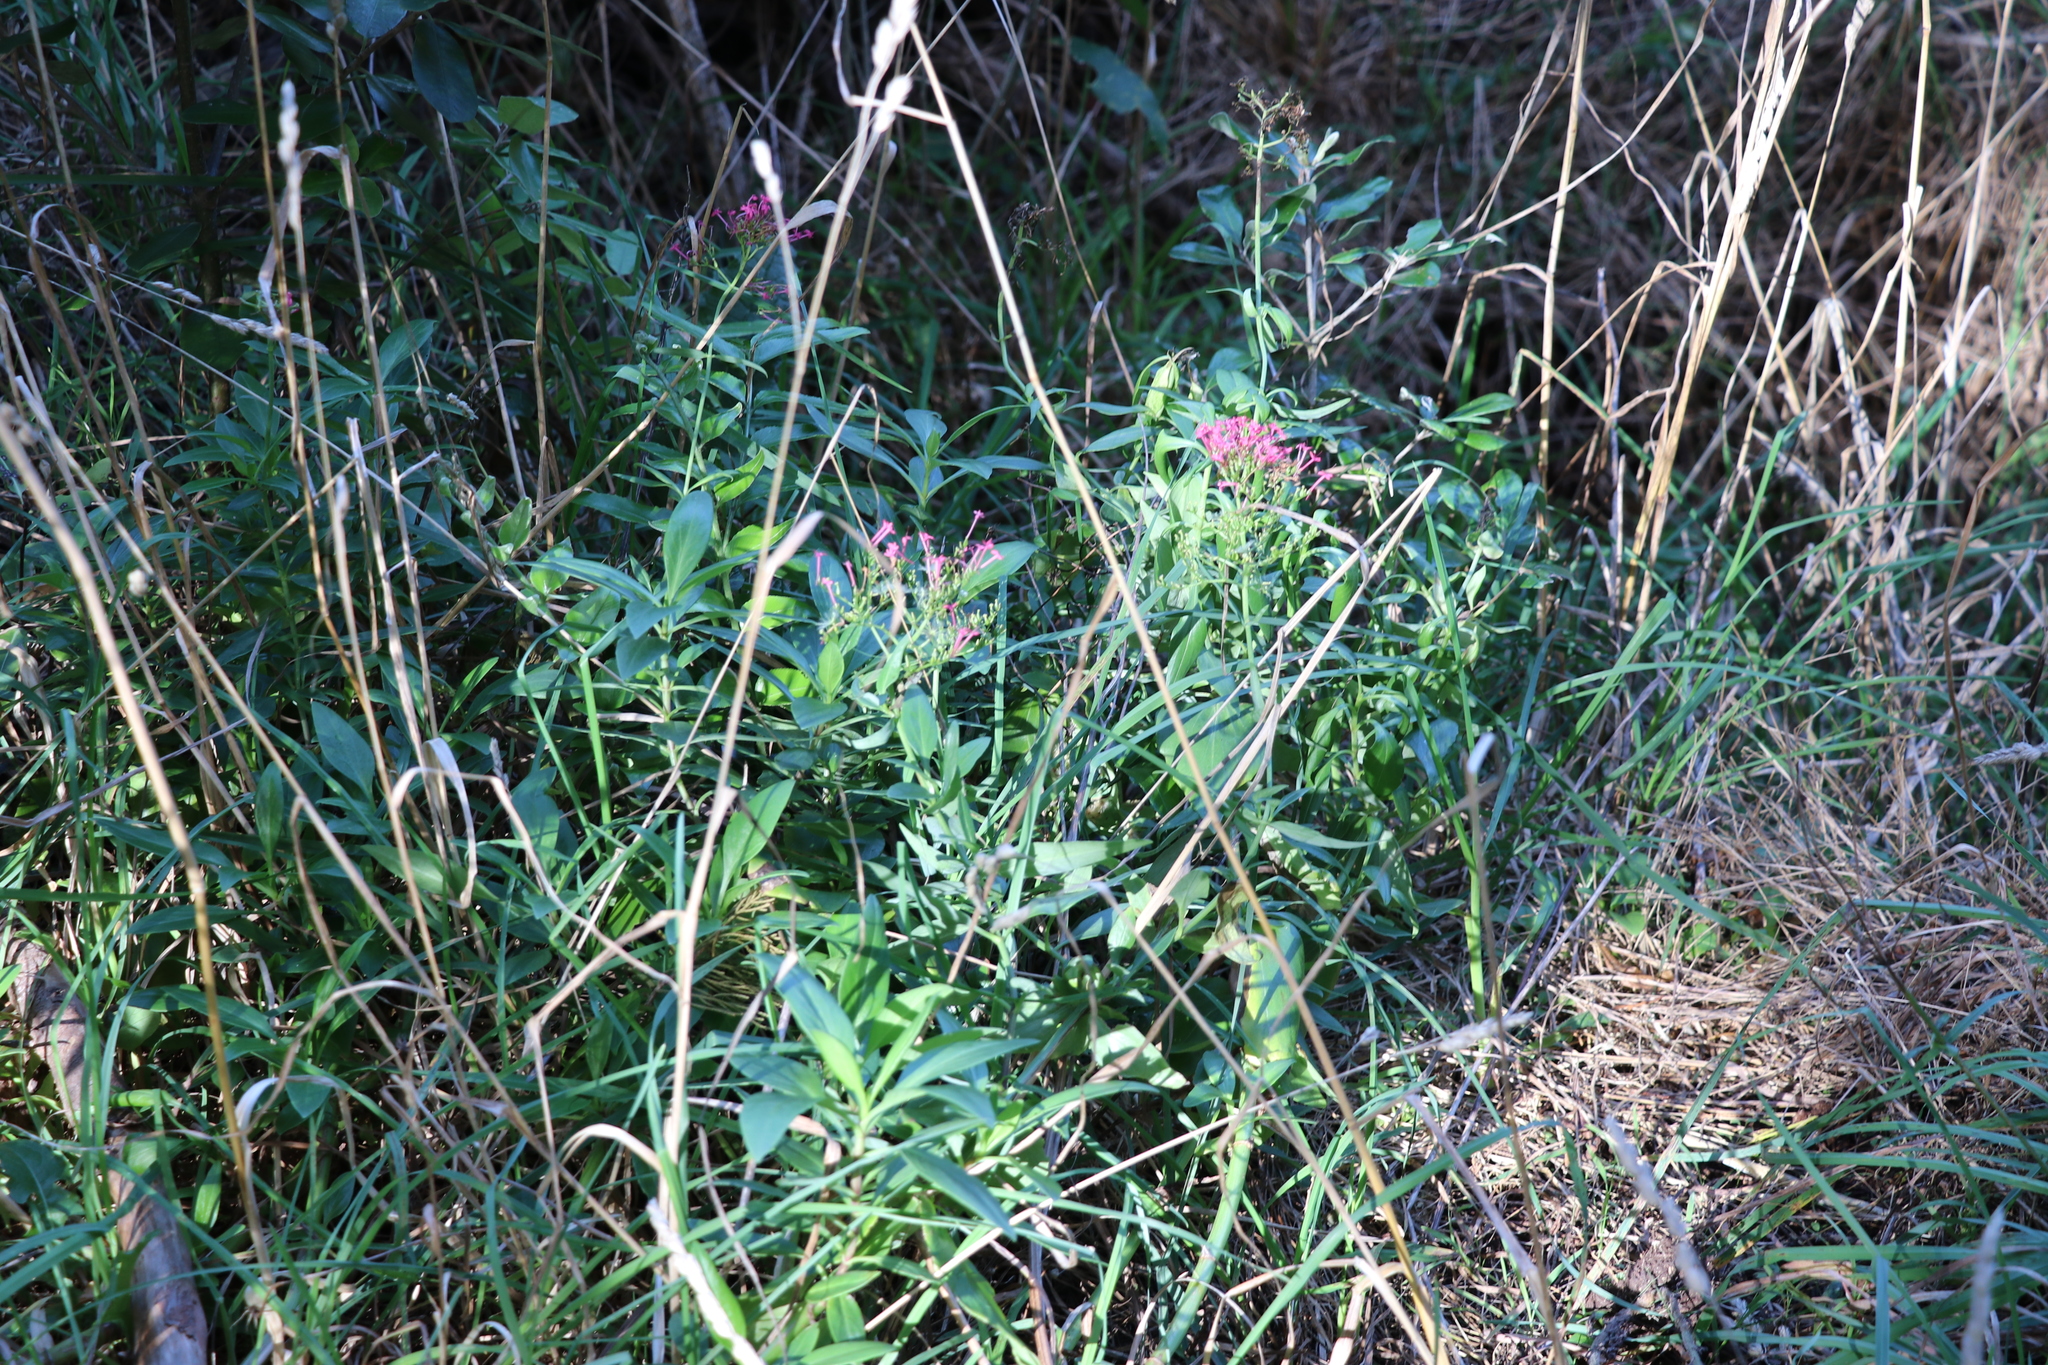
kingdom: Plantae
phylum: Tracheophyta
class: Magnoliopsida
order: Dipsacales
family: Caprifoliaceae
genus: Centranthus
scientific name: Centranthus ruber
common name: Red valerian
